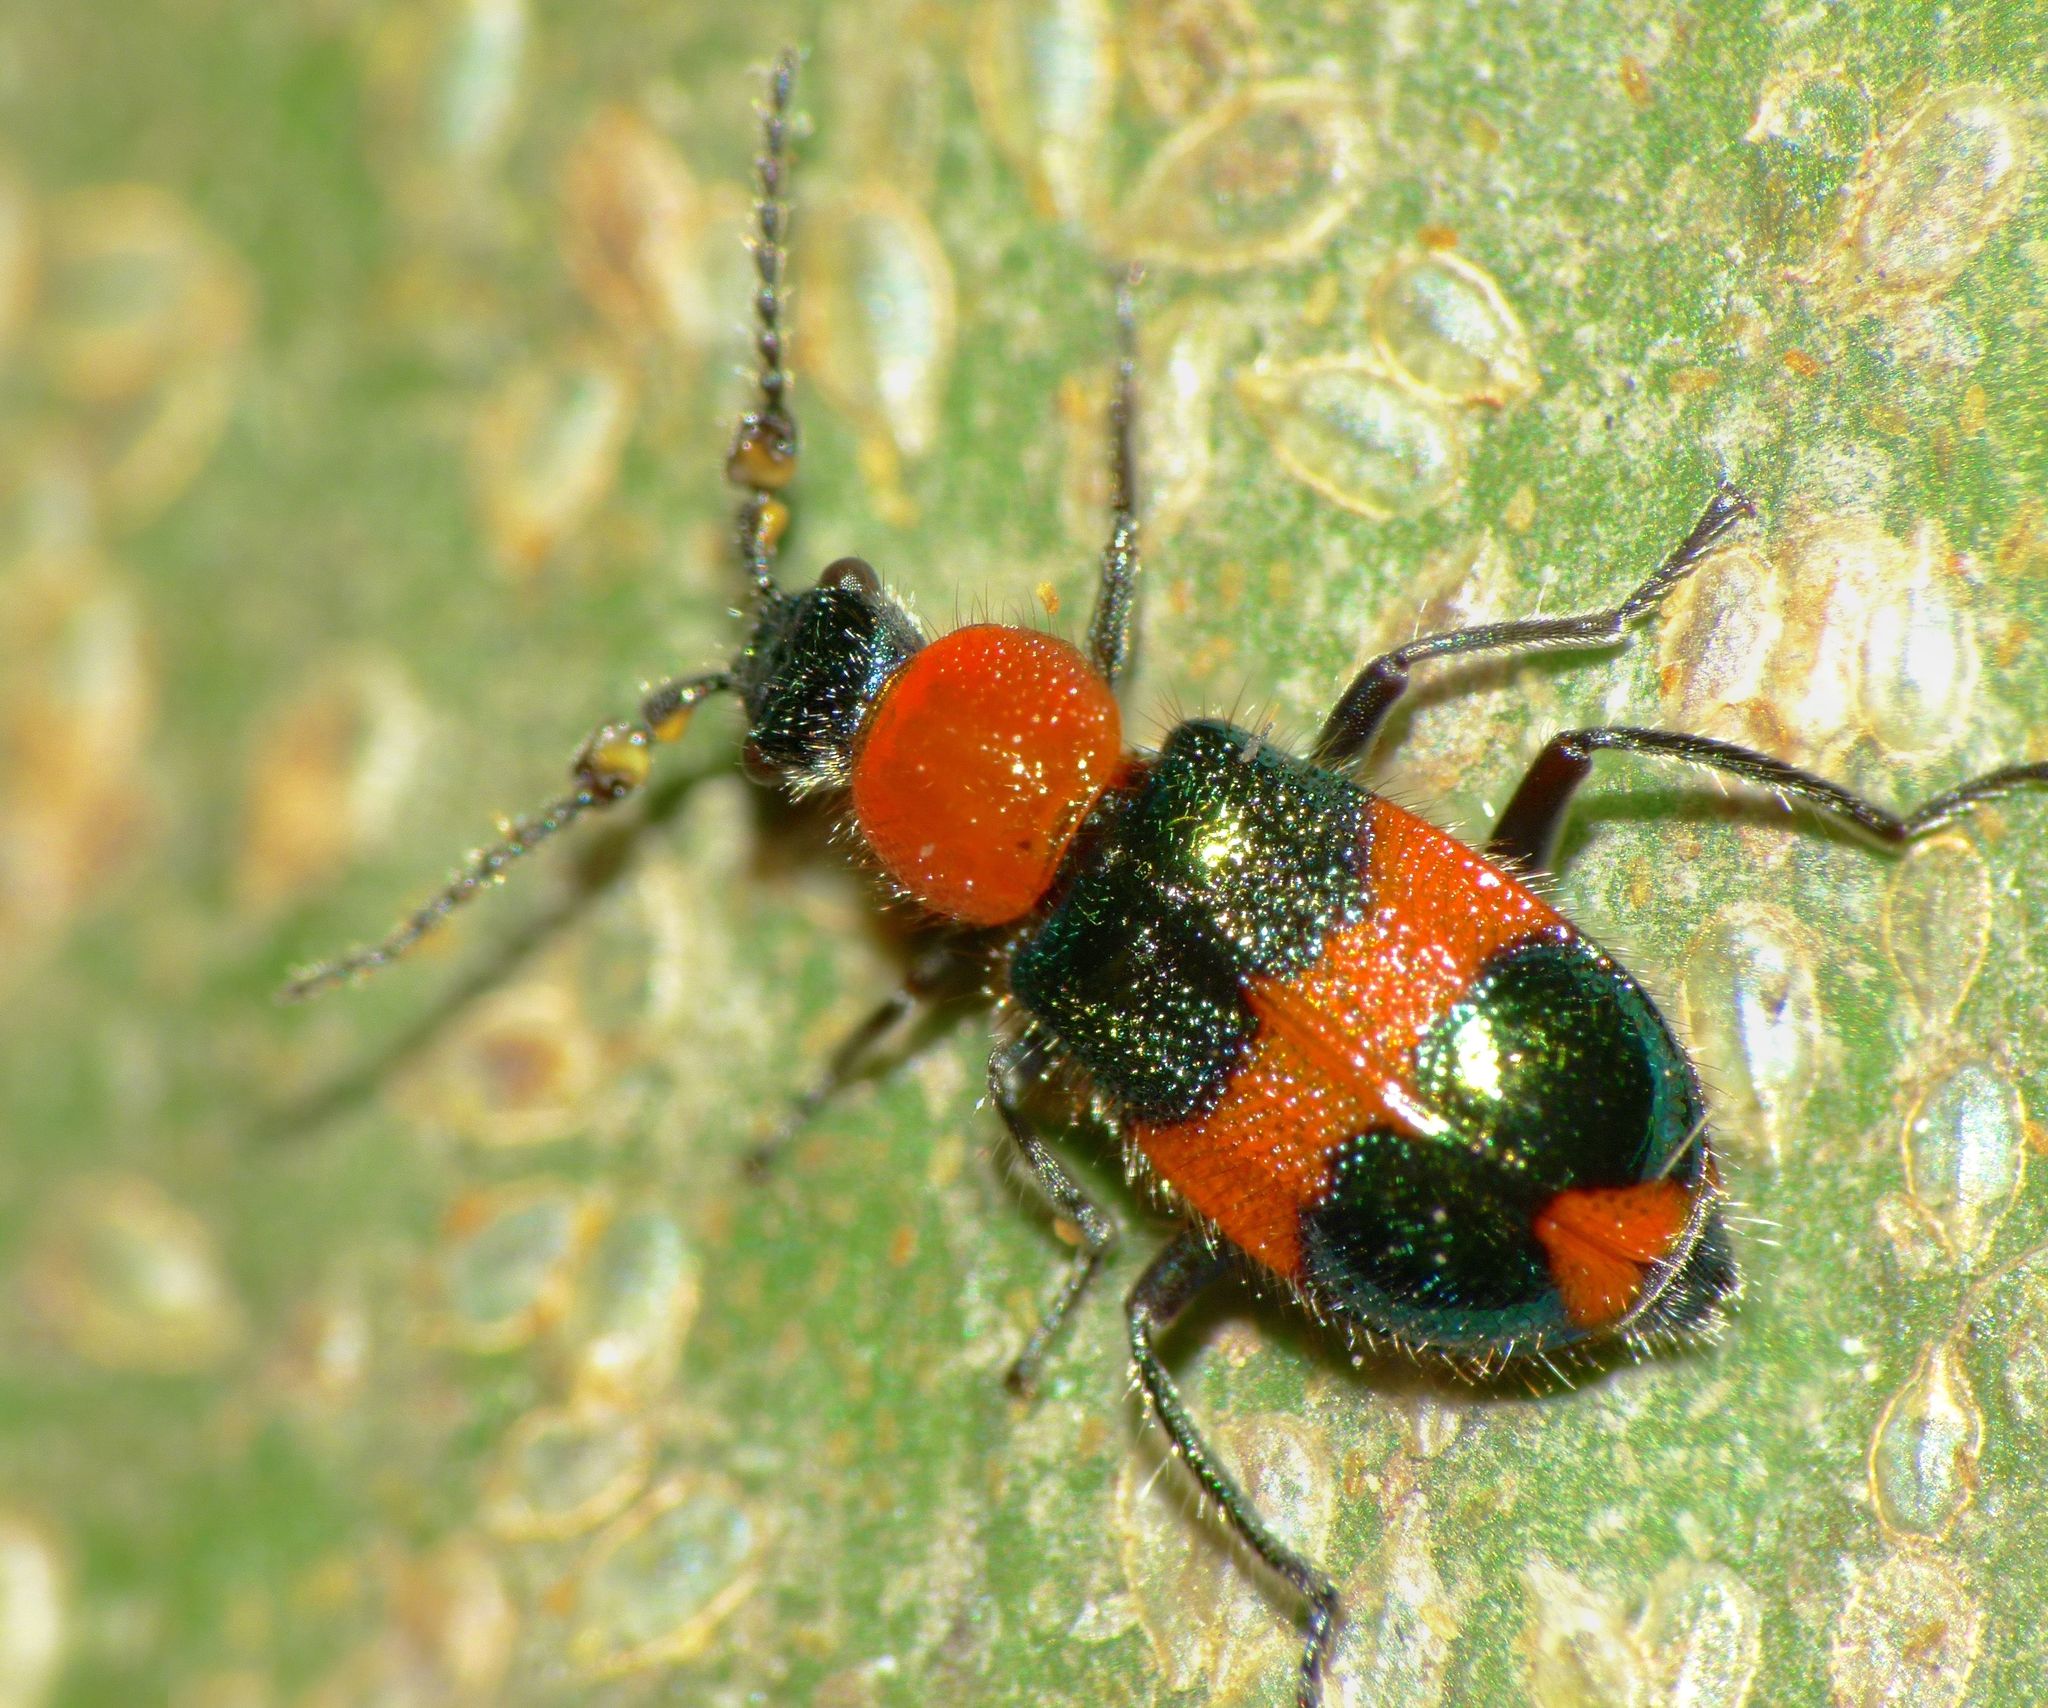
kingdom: Animalia
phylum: Arthropoda
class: Insecta
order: Coleoptera
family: Melyridae
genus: Dicranolaius
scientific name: Dicranolaius bellulus
